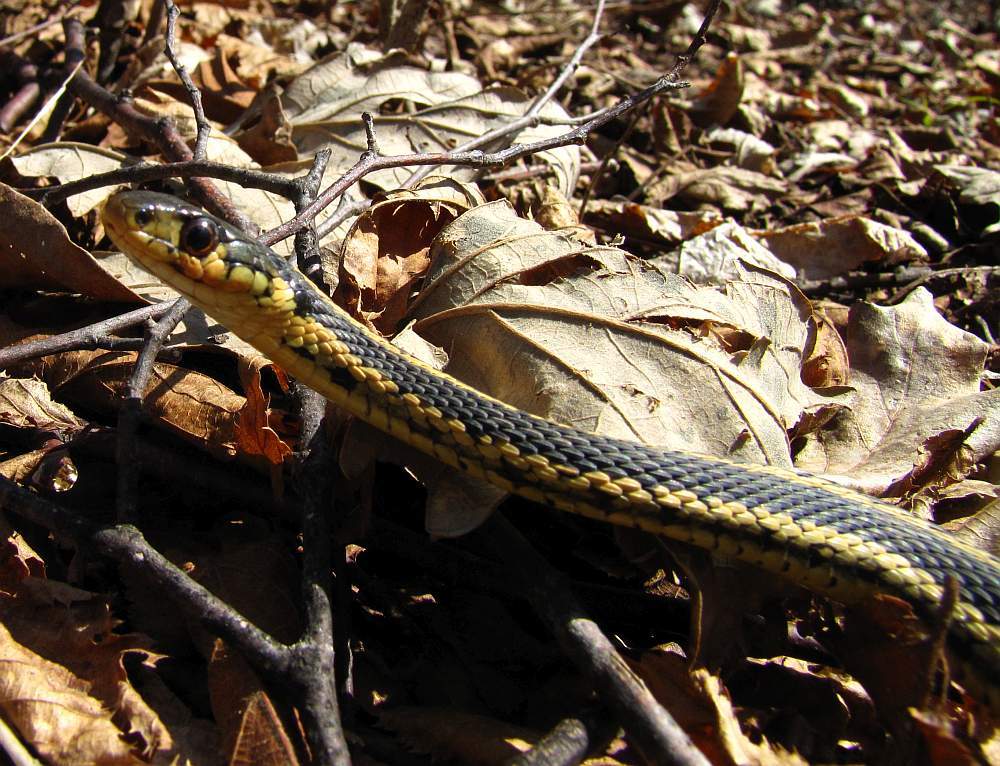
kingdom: Animalia
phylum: Chordata
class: Squamata
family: Colubridae
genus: Thamnophis
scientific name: Thamnophis sirtalis
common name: Common garter snake
